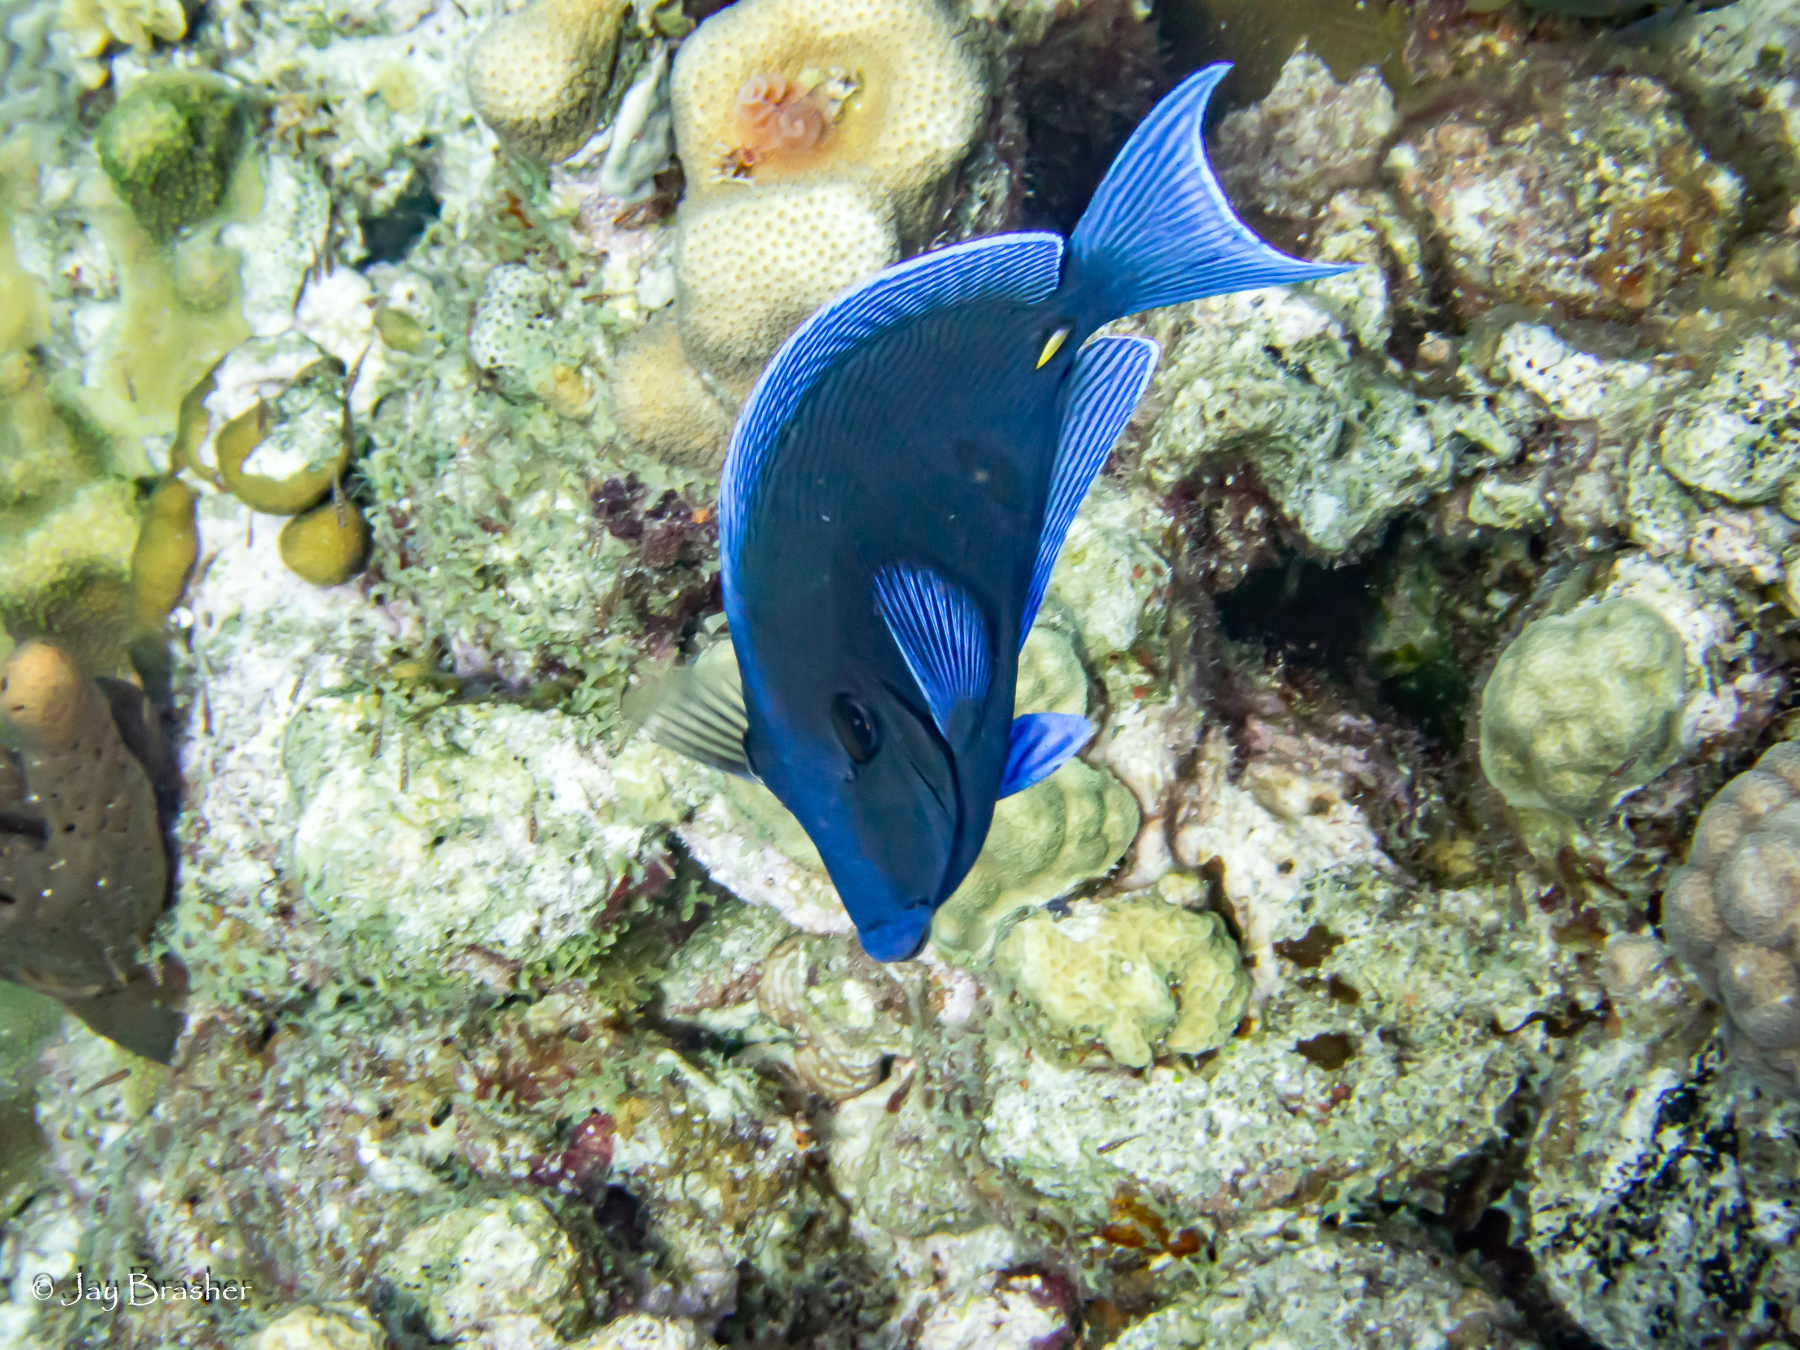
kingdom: Animalia
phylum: Chordata
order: Perciformes
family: Acanthuridae
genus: Acanthurus
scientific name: Acanthurus coeruleus
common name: Blue tang
